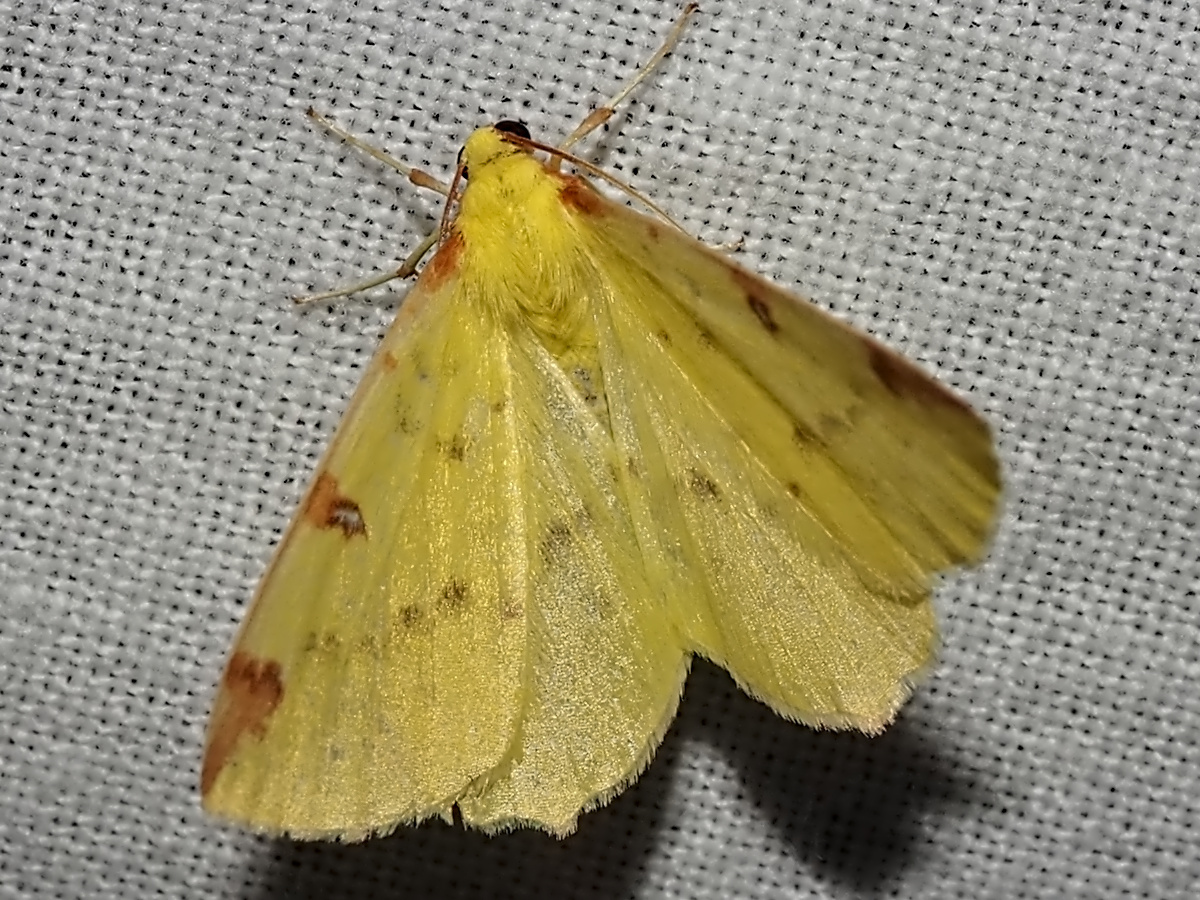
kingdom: Animalia
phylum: Arthropoda
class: Insecta
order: Lepidoptera
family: Geometridae
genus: Opisthograptis
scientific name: Opisthograptis luteolata
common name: Brimstone moth
